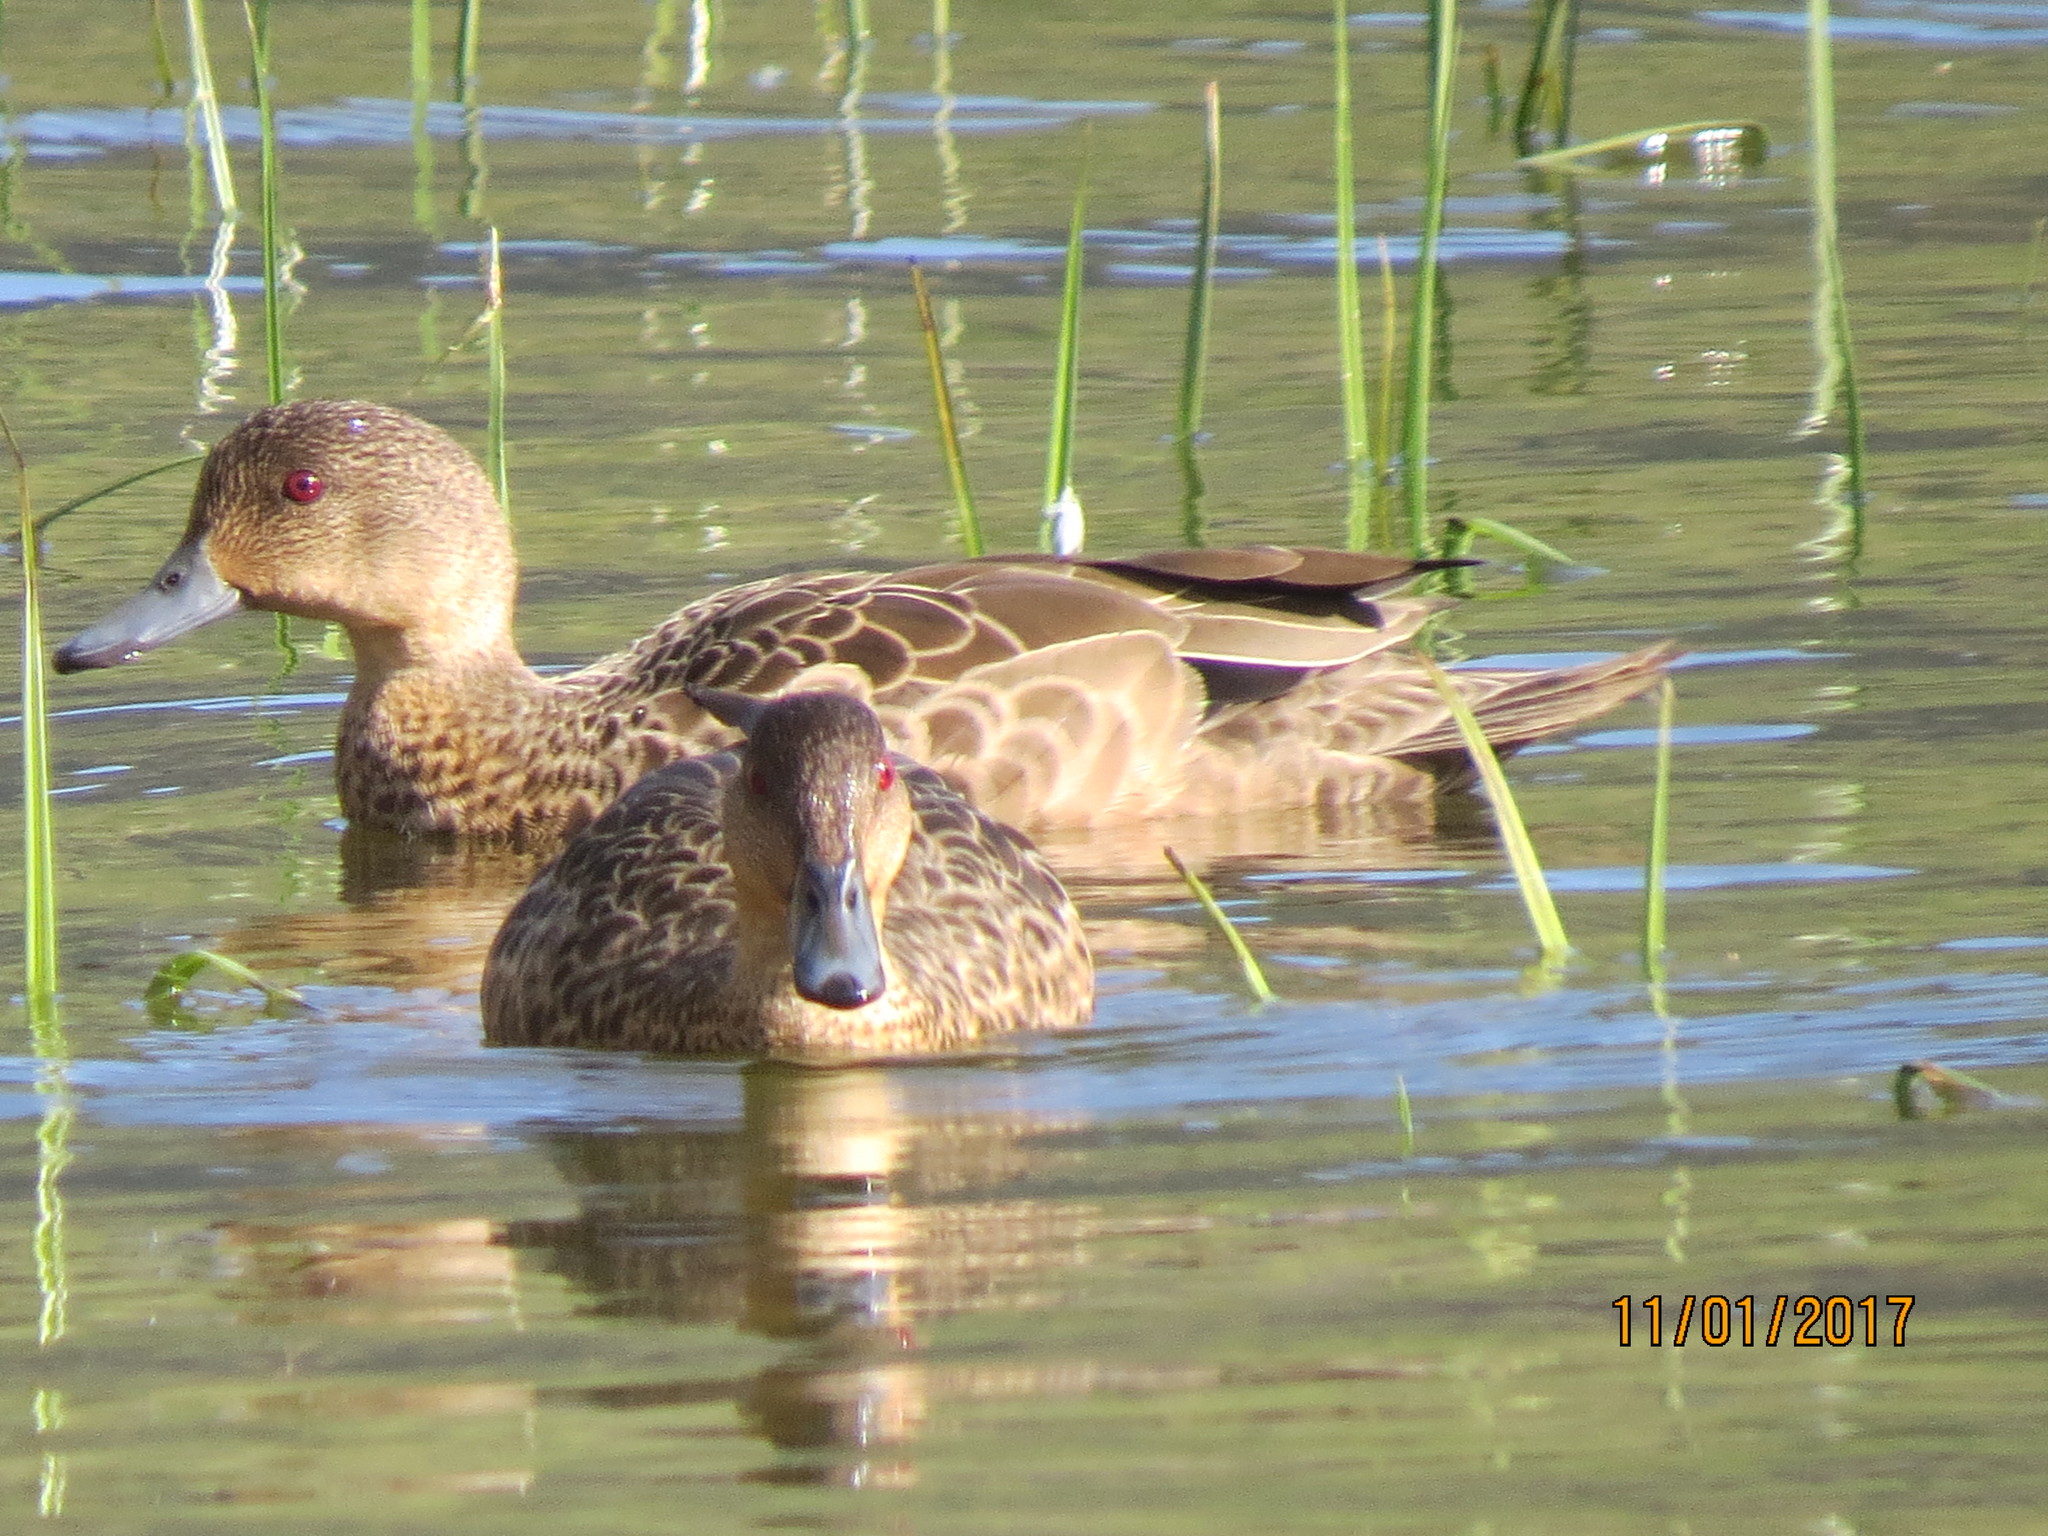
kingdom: Animalia
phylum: Chordata
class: Aves
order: Anseriformes
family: Anatidae
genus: Anas
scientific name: Anas gracilis
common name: Grey teal
